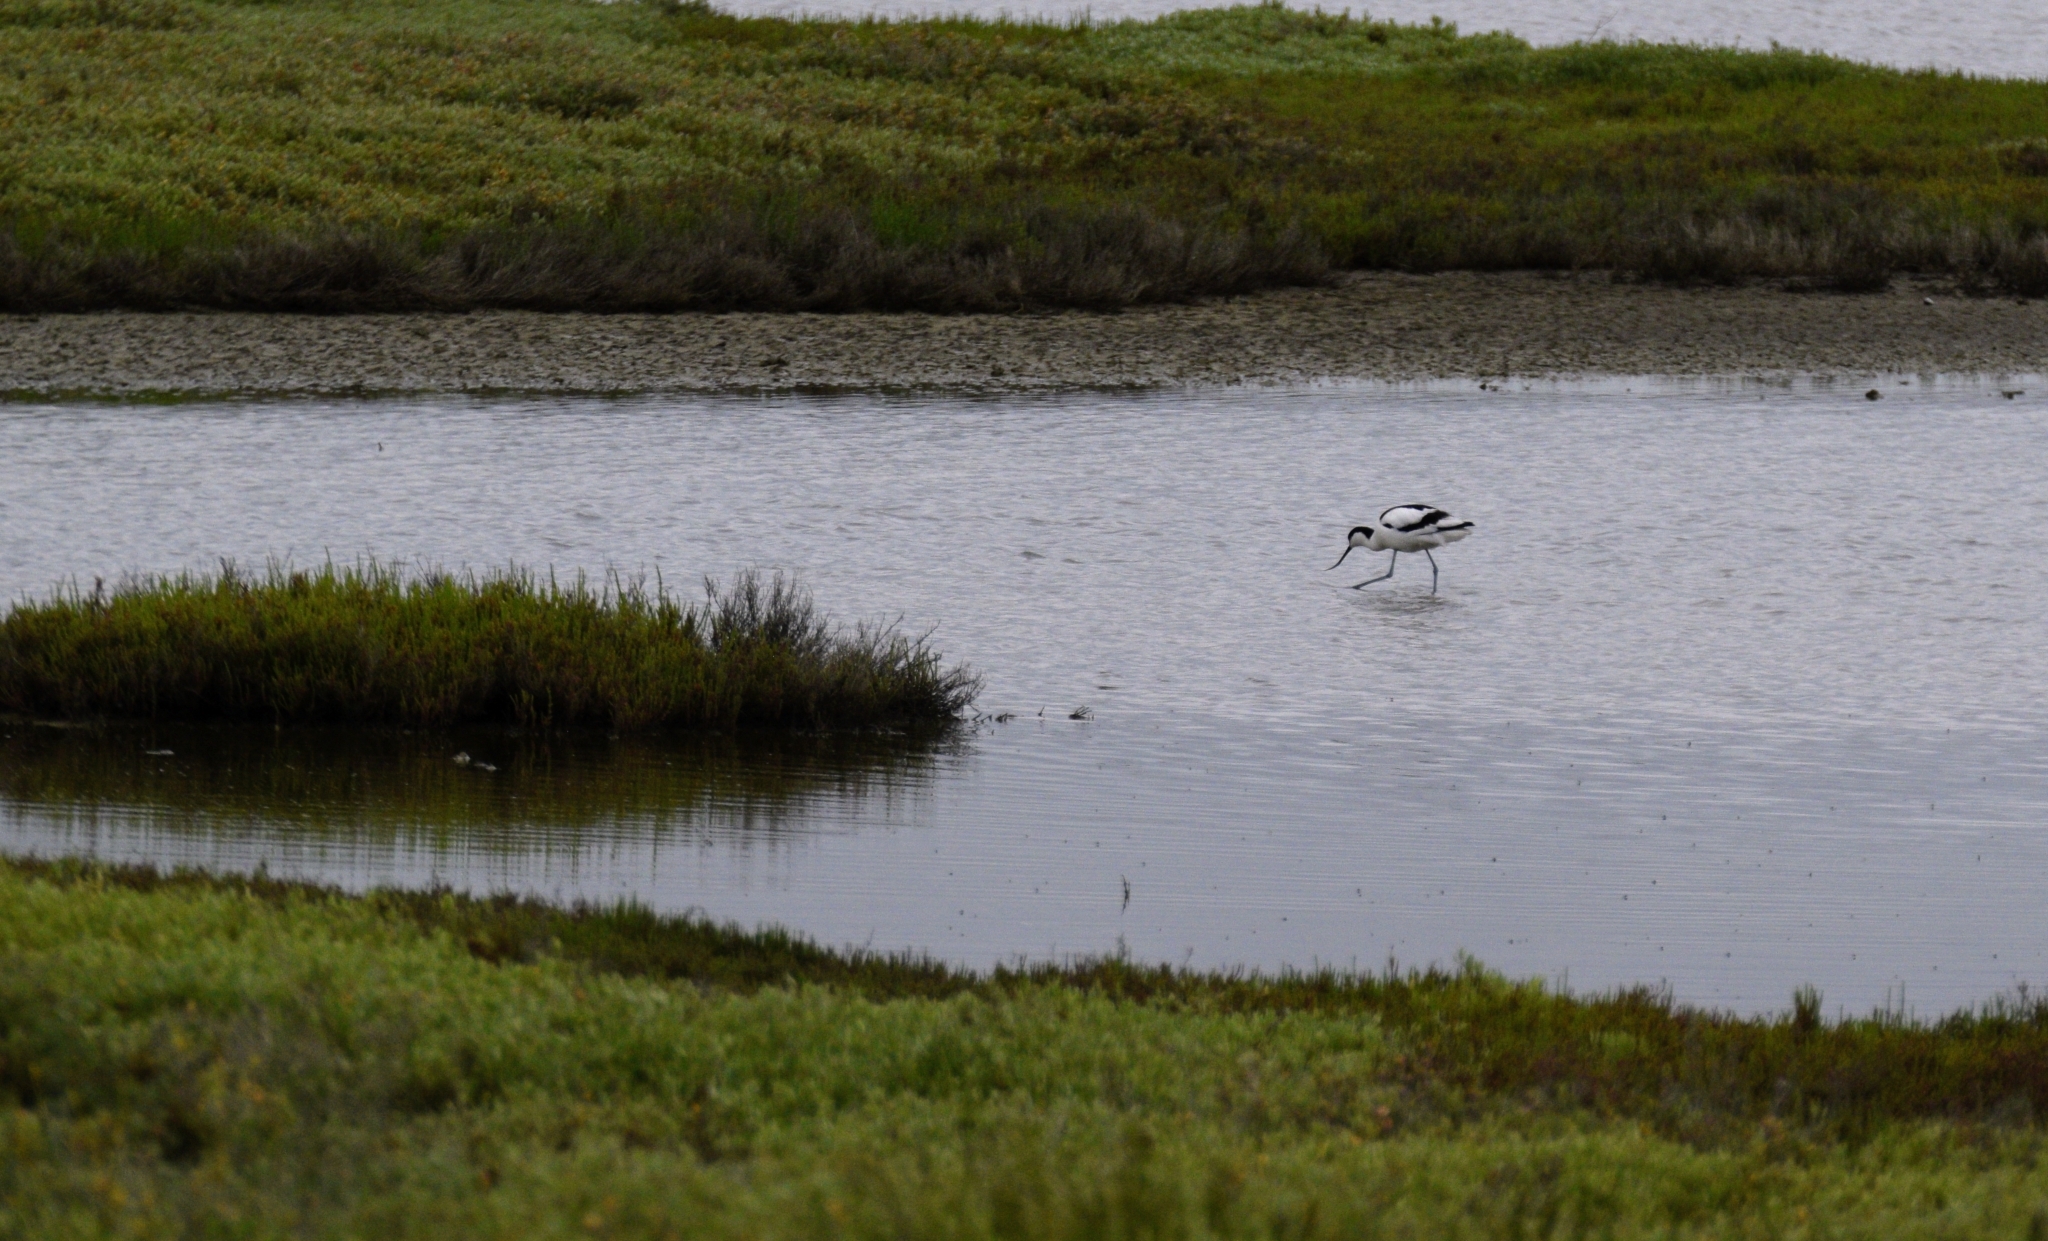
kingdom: Animalia
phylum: Chordata
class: Aves
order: Charadriiformes
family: Recurvirostridae
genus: Recurvirostra
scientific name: Recurvirostra avosetta
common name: Pied avocet
